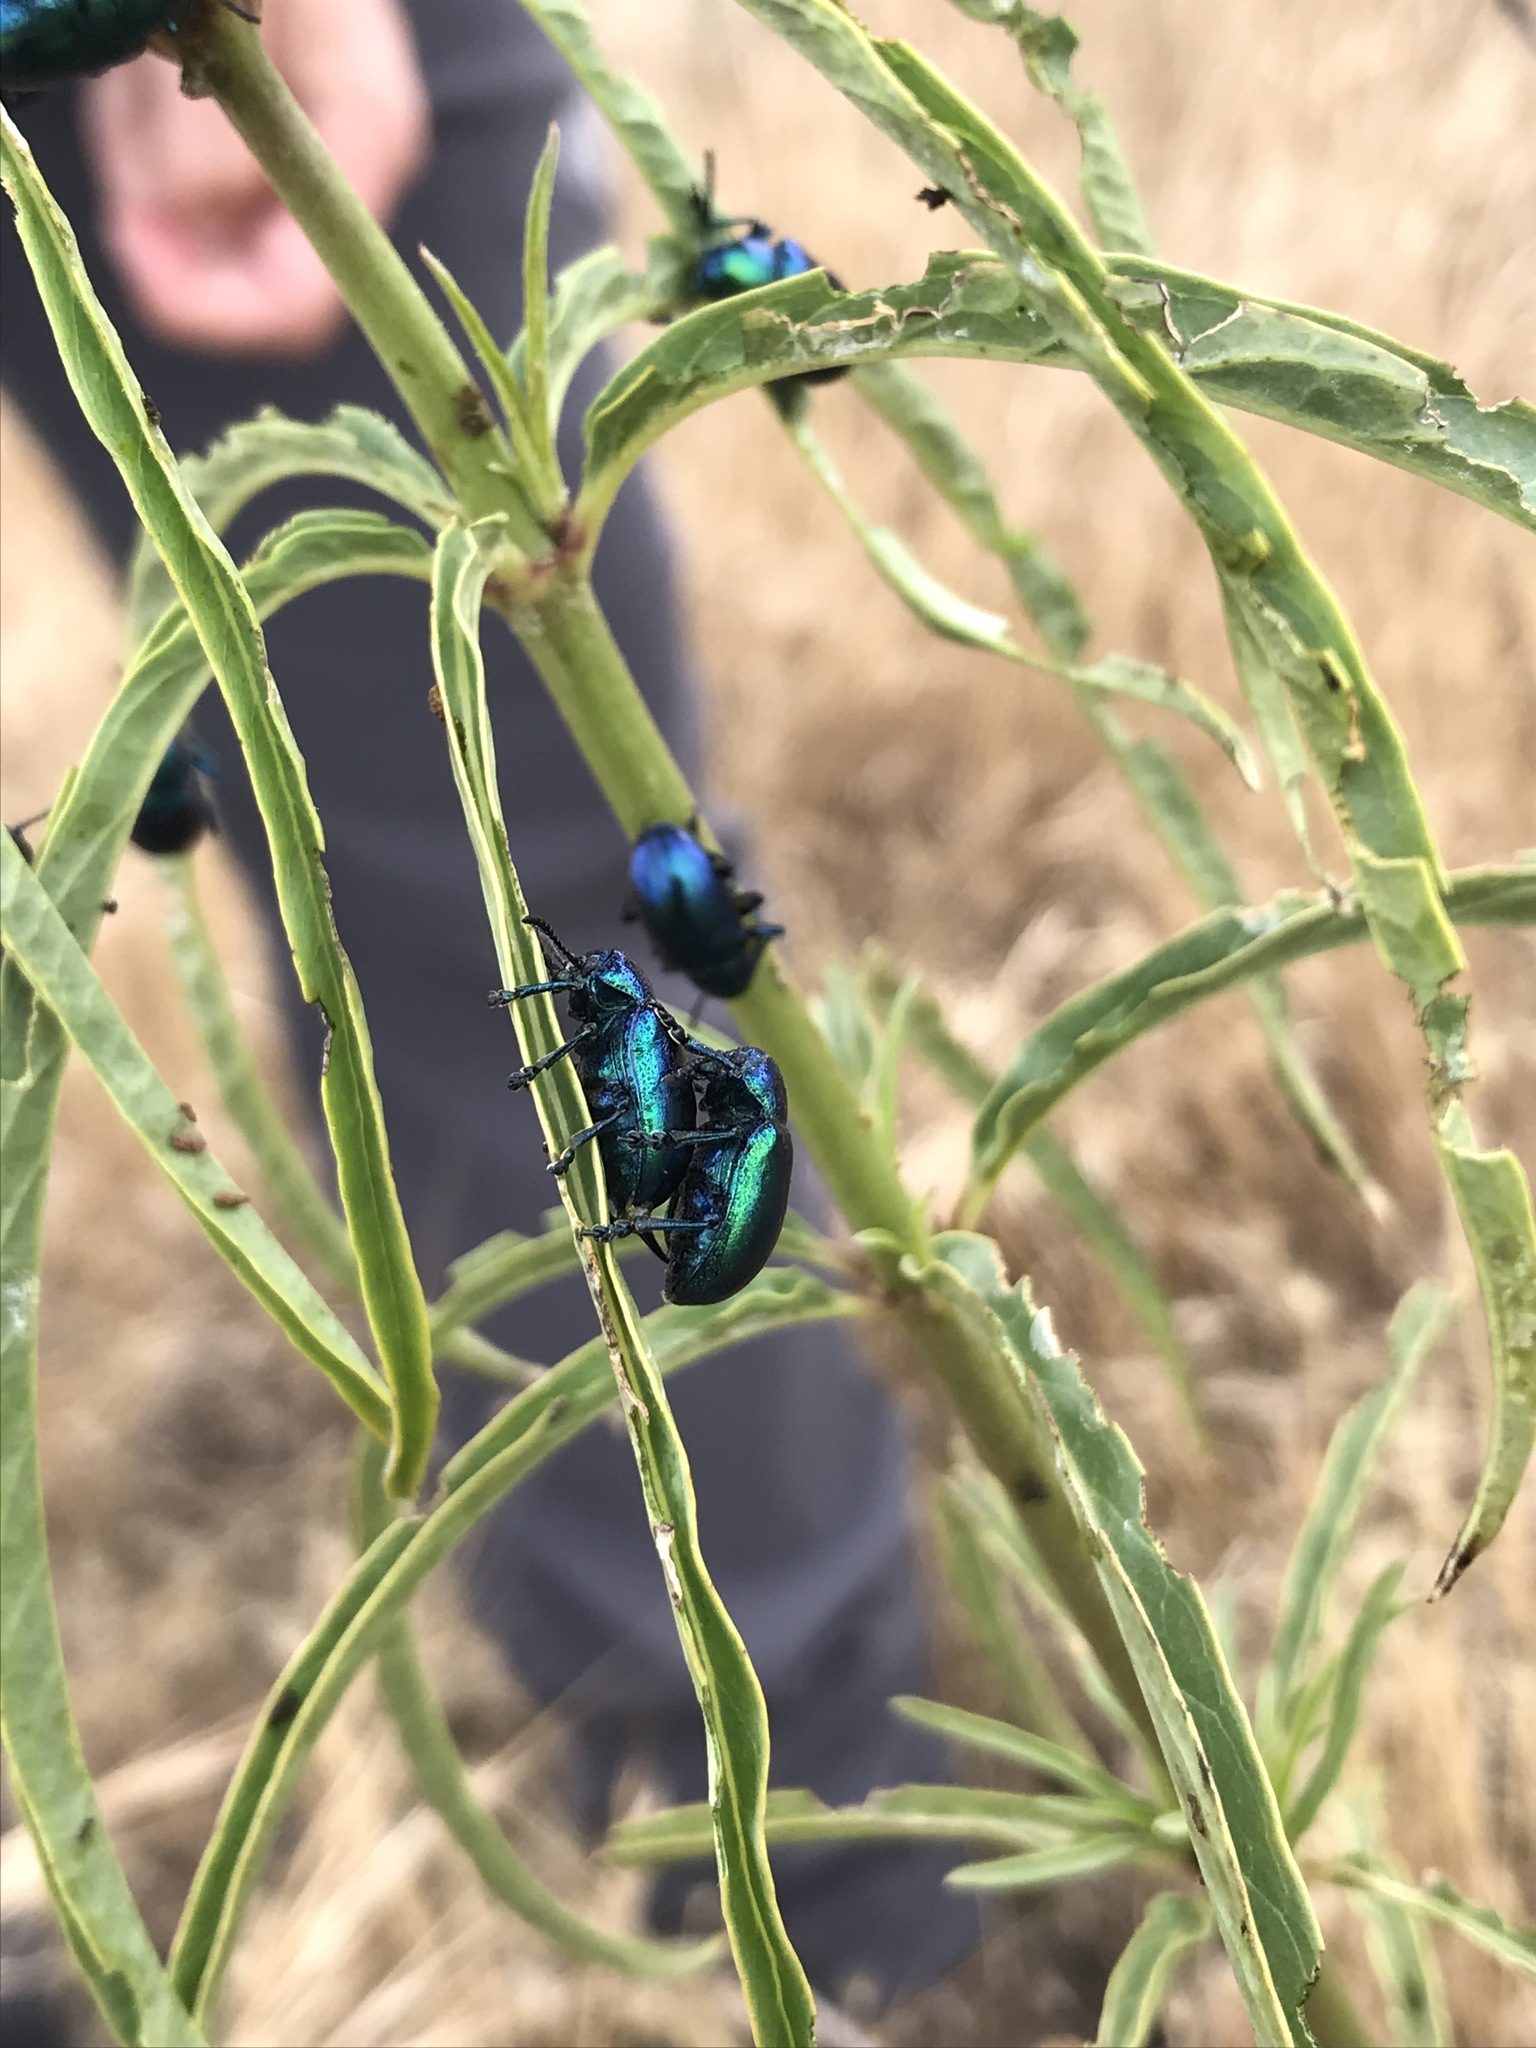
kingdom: Animalia
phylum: Arthropoda
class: Insecta
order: Coleoptera
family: Chrysomelidae
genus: Chrysochus
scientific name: Chrysochus cobaltinus
